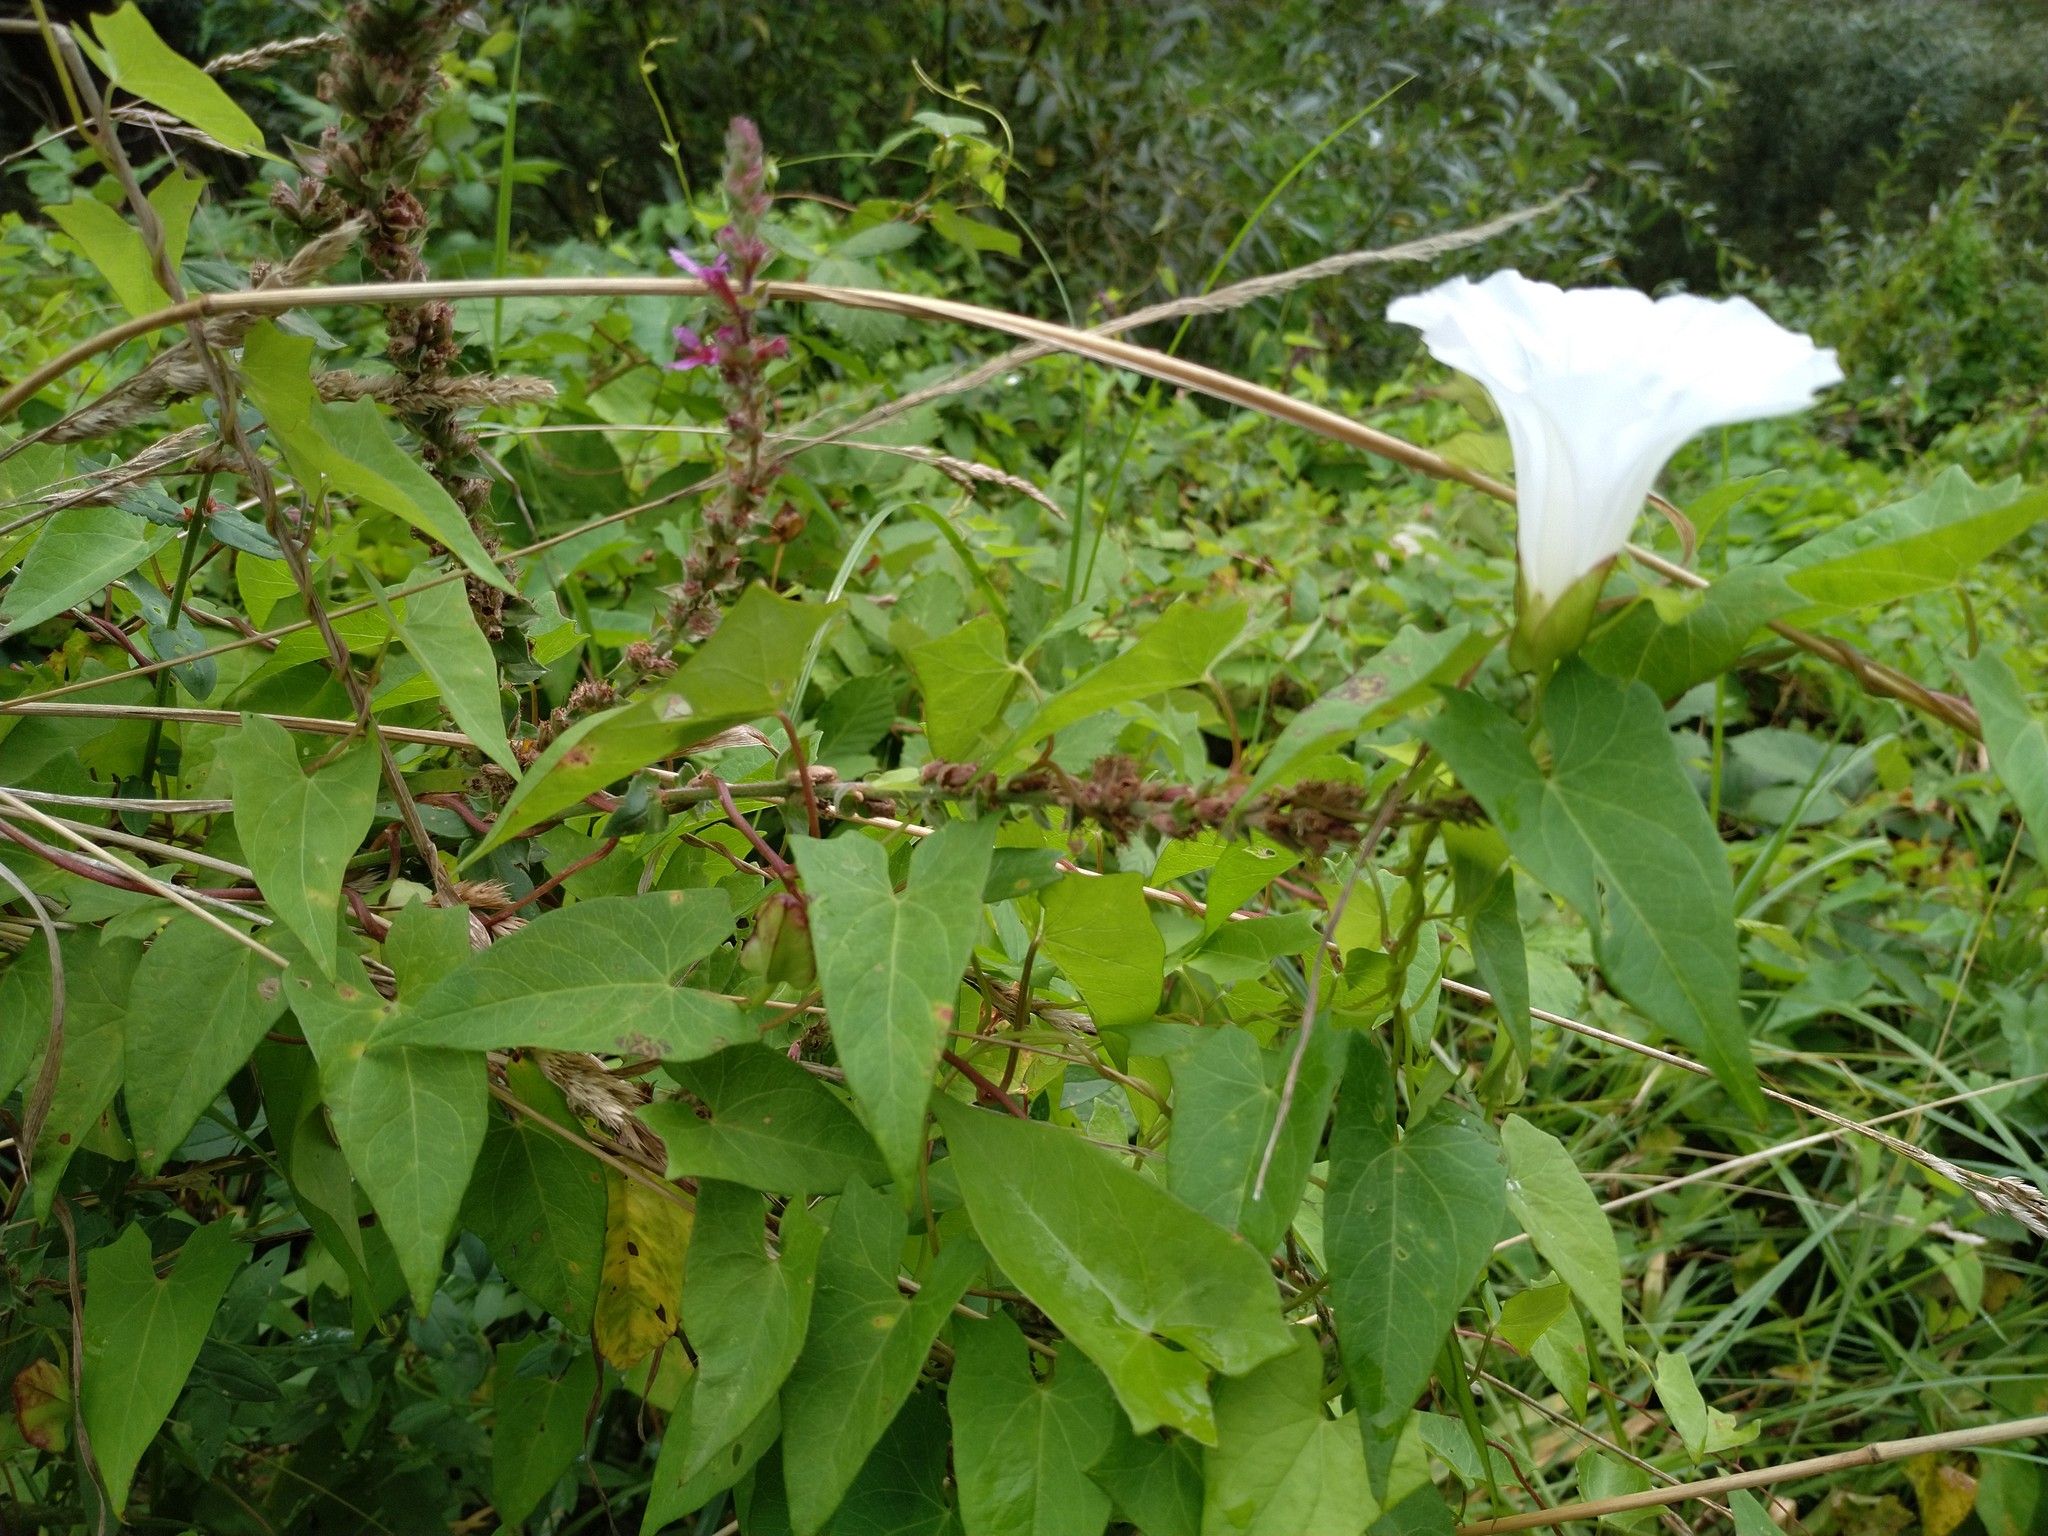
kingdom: Plantae
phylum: Tracheophyta
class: Magnoliopsida
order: Solanales
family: Convolvulaceae
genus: Calystegia
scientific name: Calystegia sepium
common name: Hedge bindweed
